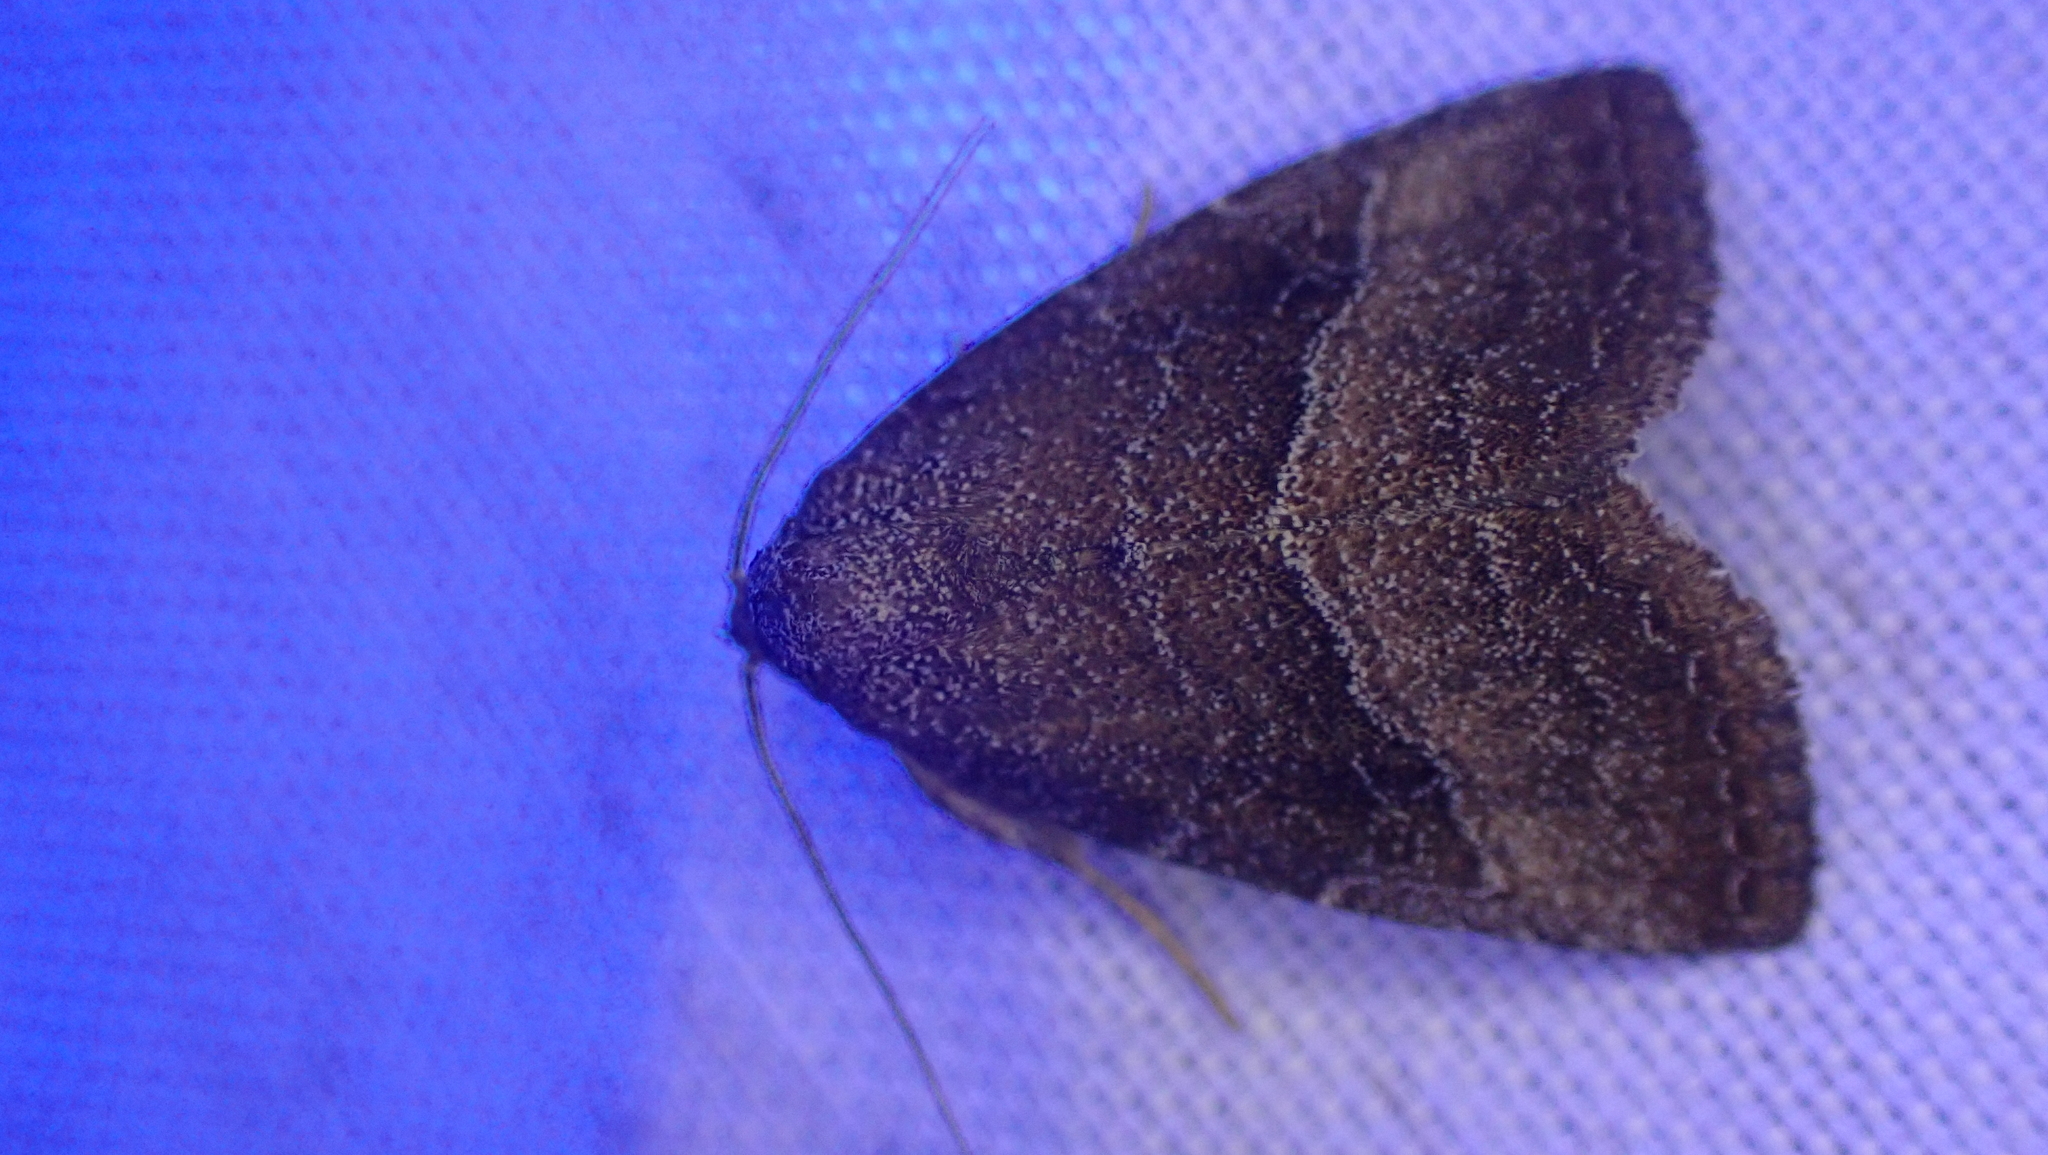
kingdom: Animalia
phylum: Arthropoda
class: Insecta
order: Lepidoptera
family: Noctuidae
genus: Ogdoconta
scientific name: Ogdoconta cinereola
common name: Common pinkband
